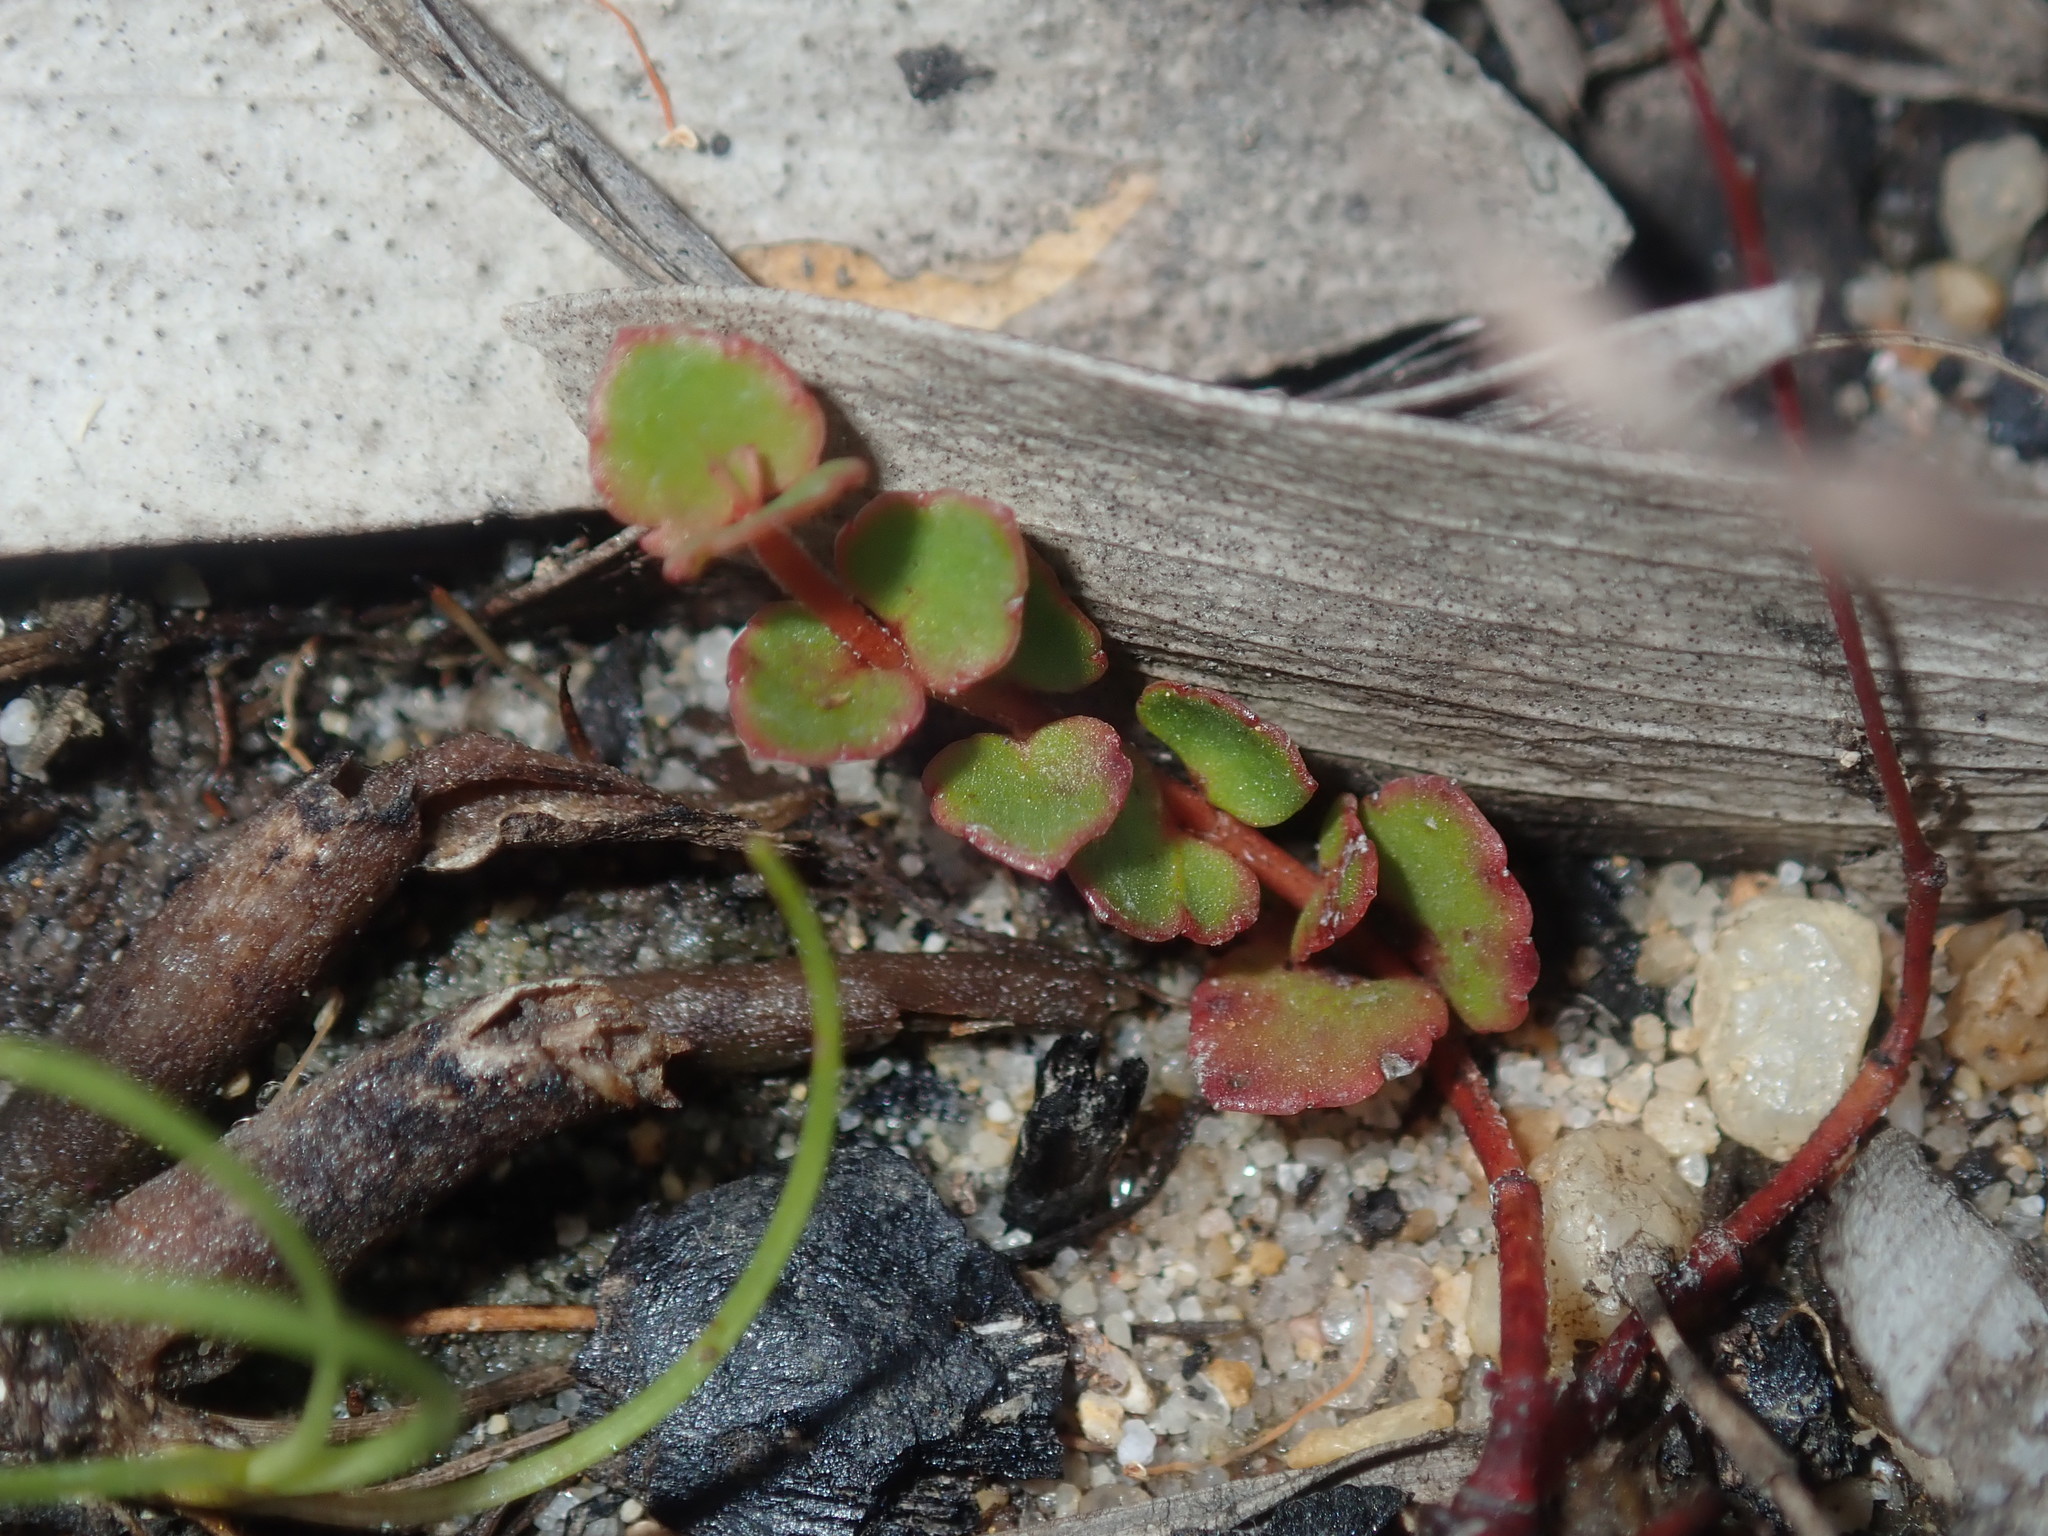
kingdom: Plantae
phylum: Tracheophyta
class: Magnoliopsida
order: Saxifragales
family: Haloragaceae
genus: Gonocarpus
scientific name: Gonocarpus micranthus
